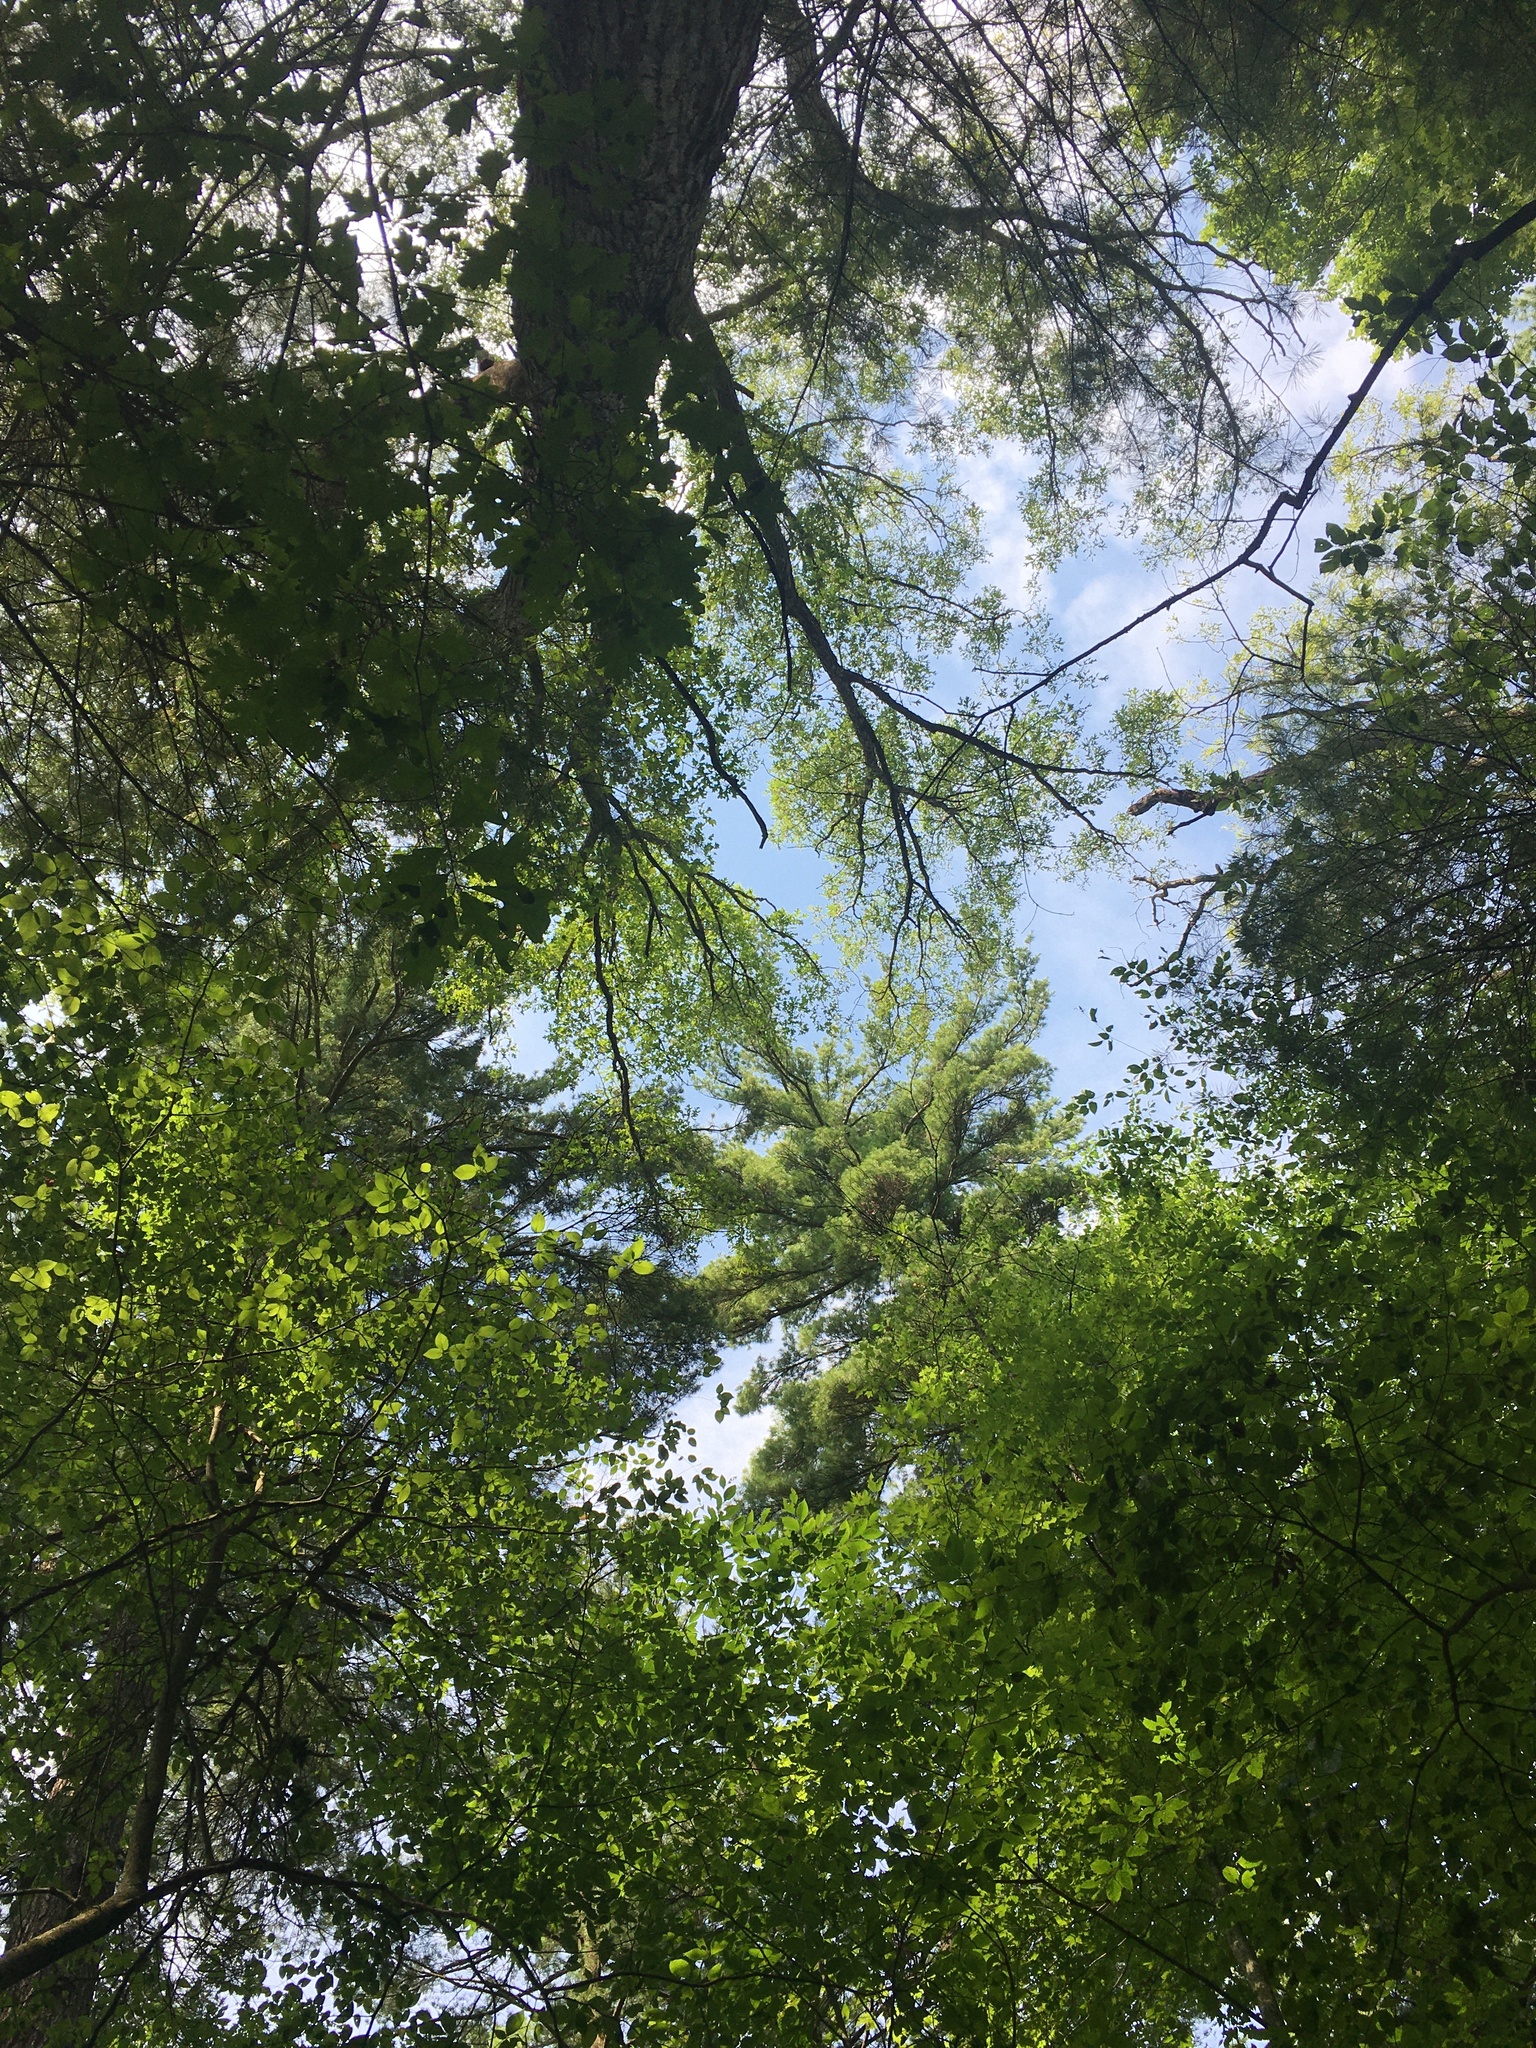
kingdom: Plantae
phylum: Tracheophyta
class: Pinopsida
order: Pinales
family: Pinaceae
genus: Pinus
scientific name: Pinus strobus
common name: Weymouth pine
